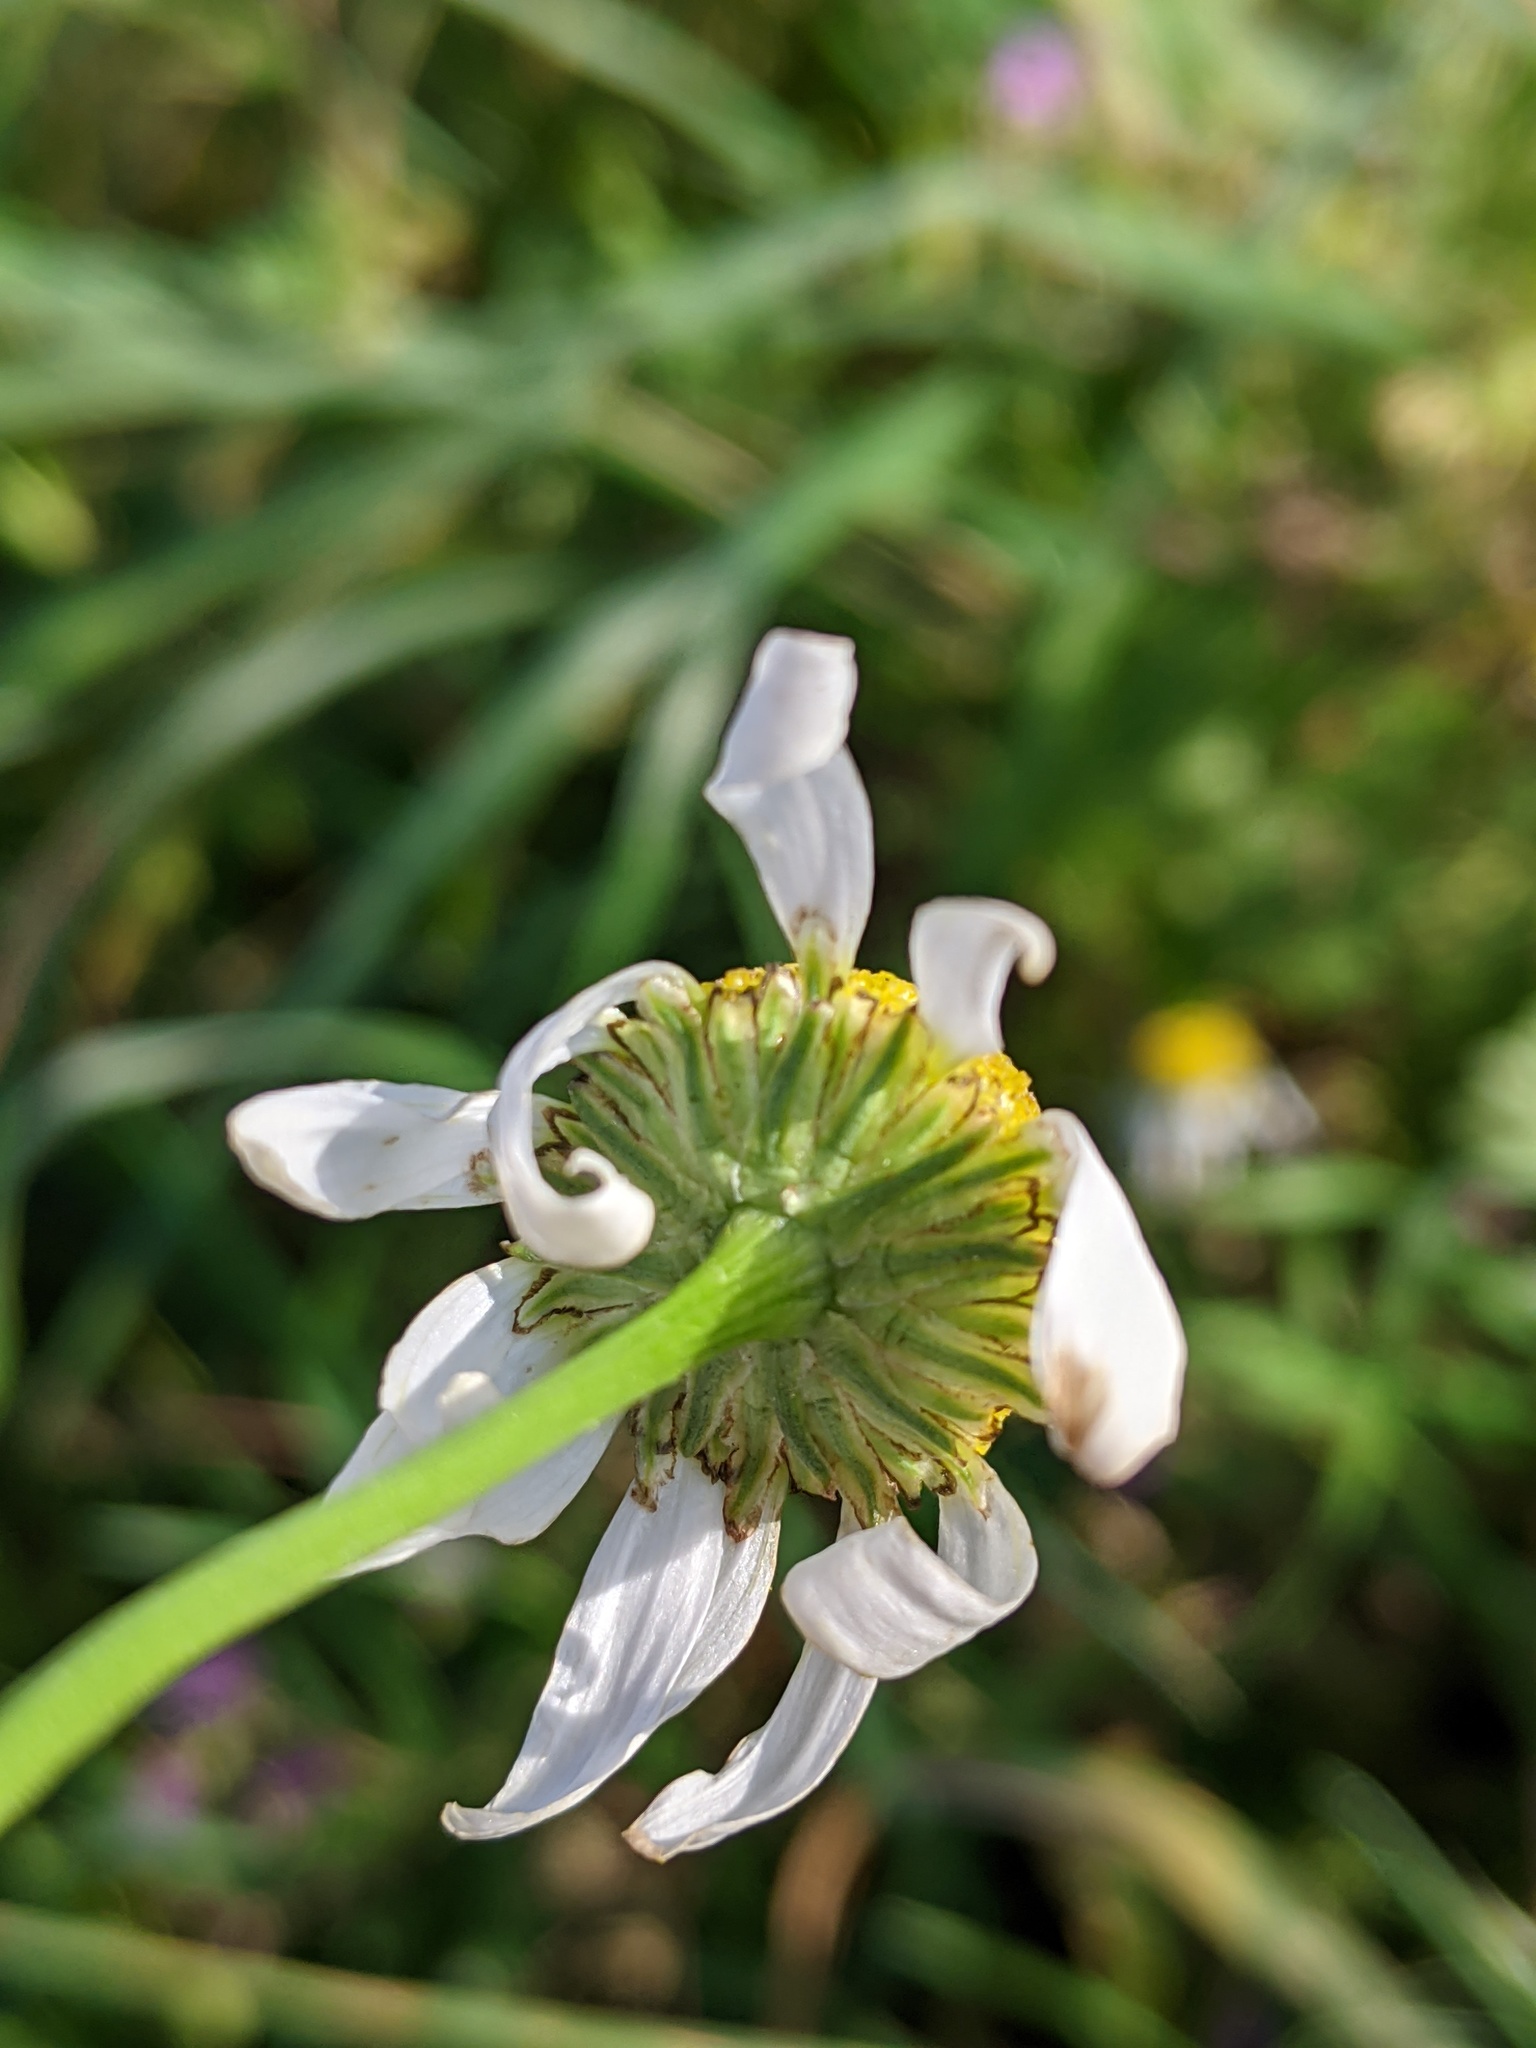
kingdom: Plantae
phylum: Tracheophyta
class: Magnoliopsida
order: Asterales
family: Asteraceae
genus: Tripleurospermum
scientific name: Tripleurospermum inodorum
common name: Scentless mayweed
